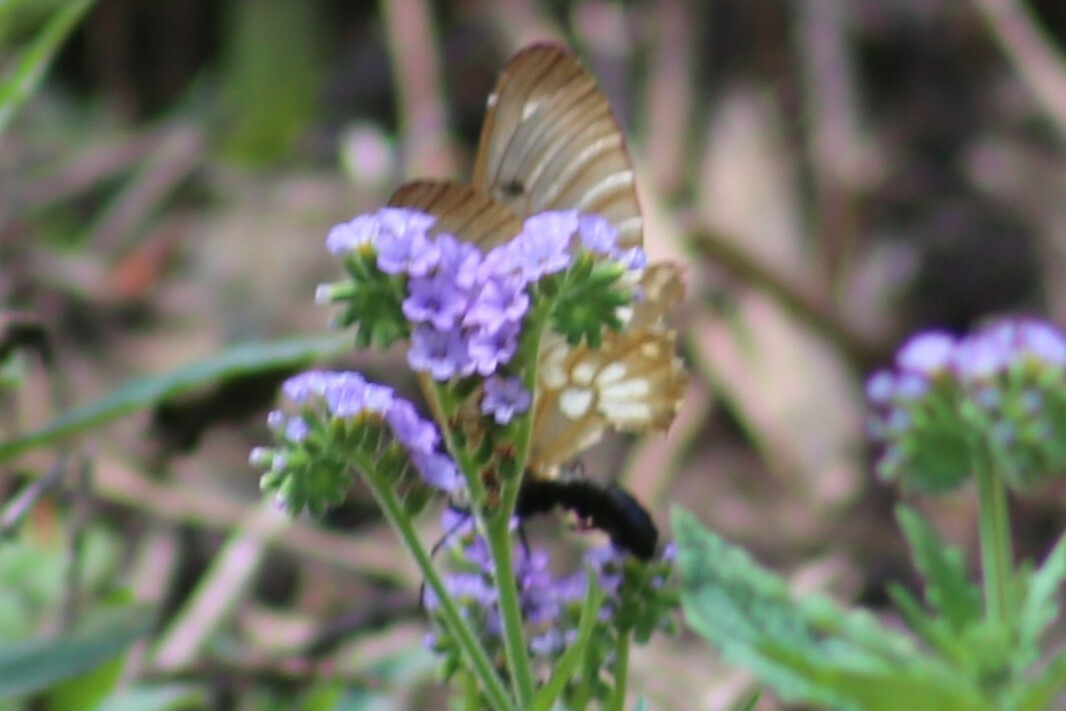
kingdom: Animalia
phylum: Arthropoda
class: Insecta
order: Lepidoptera
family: Papilionidae
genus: Cressida
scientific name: Cressida cressida
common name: Big greasy
